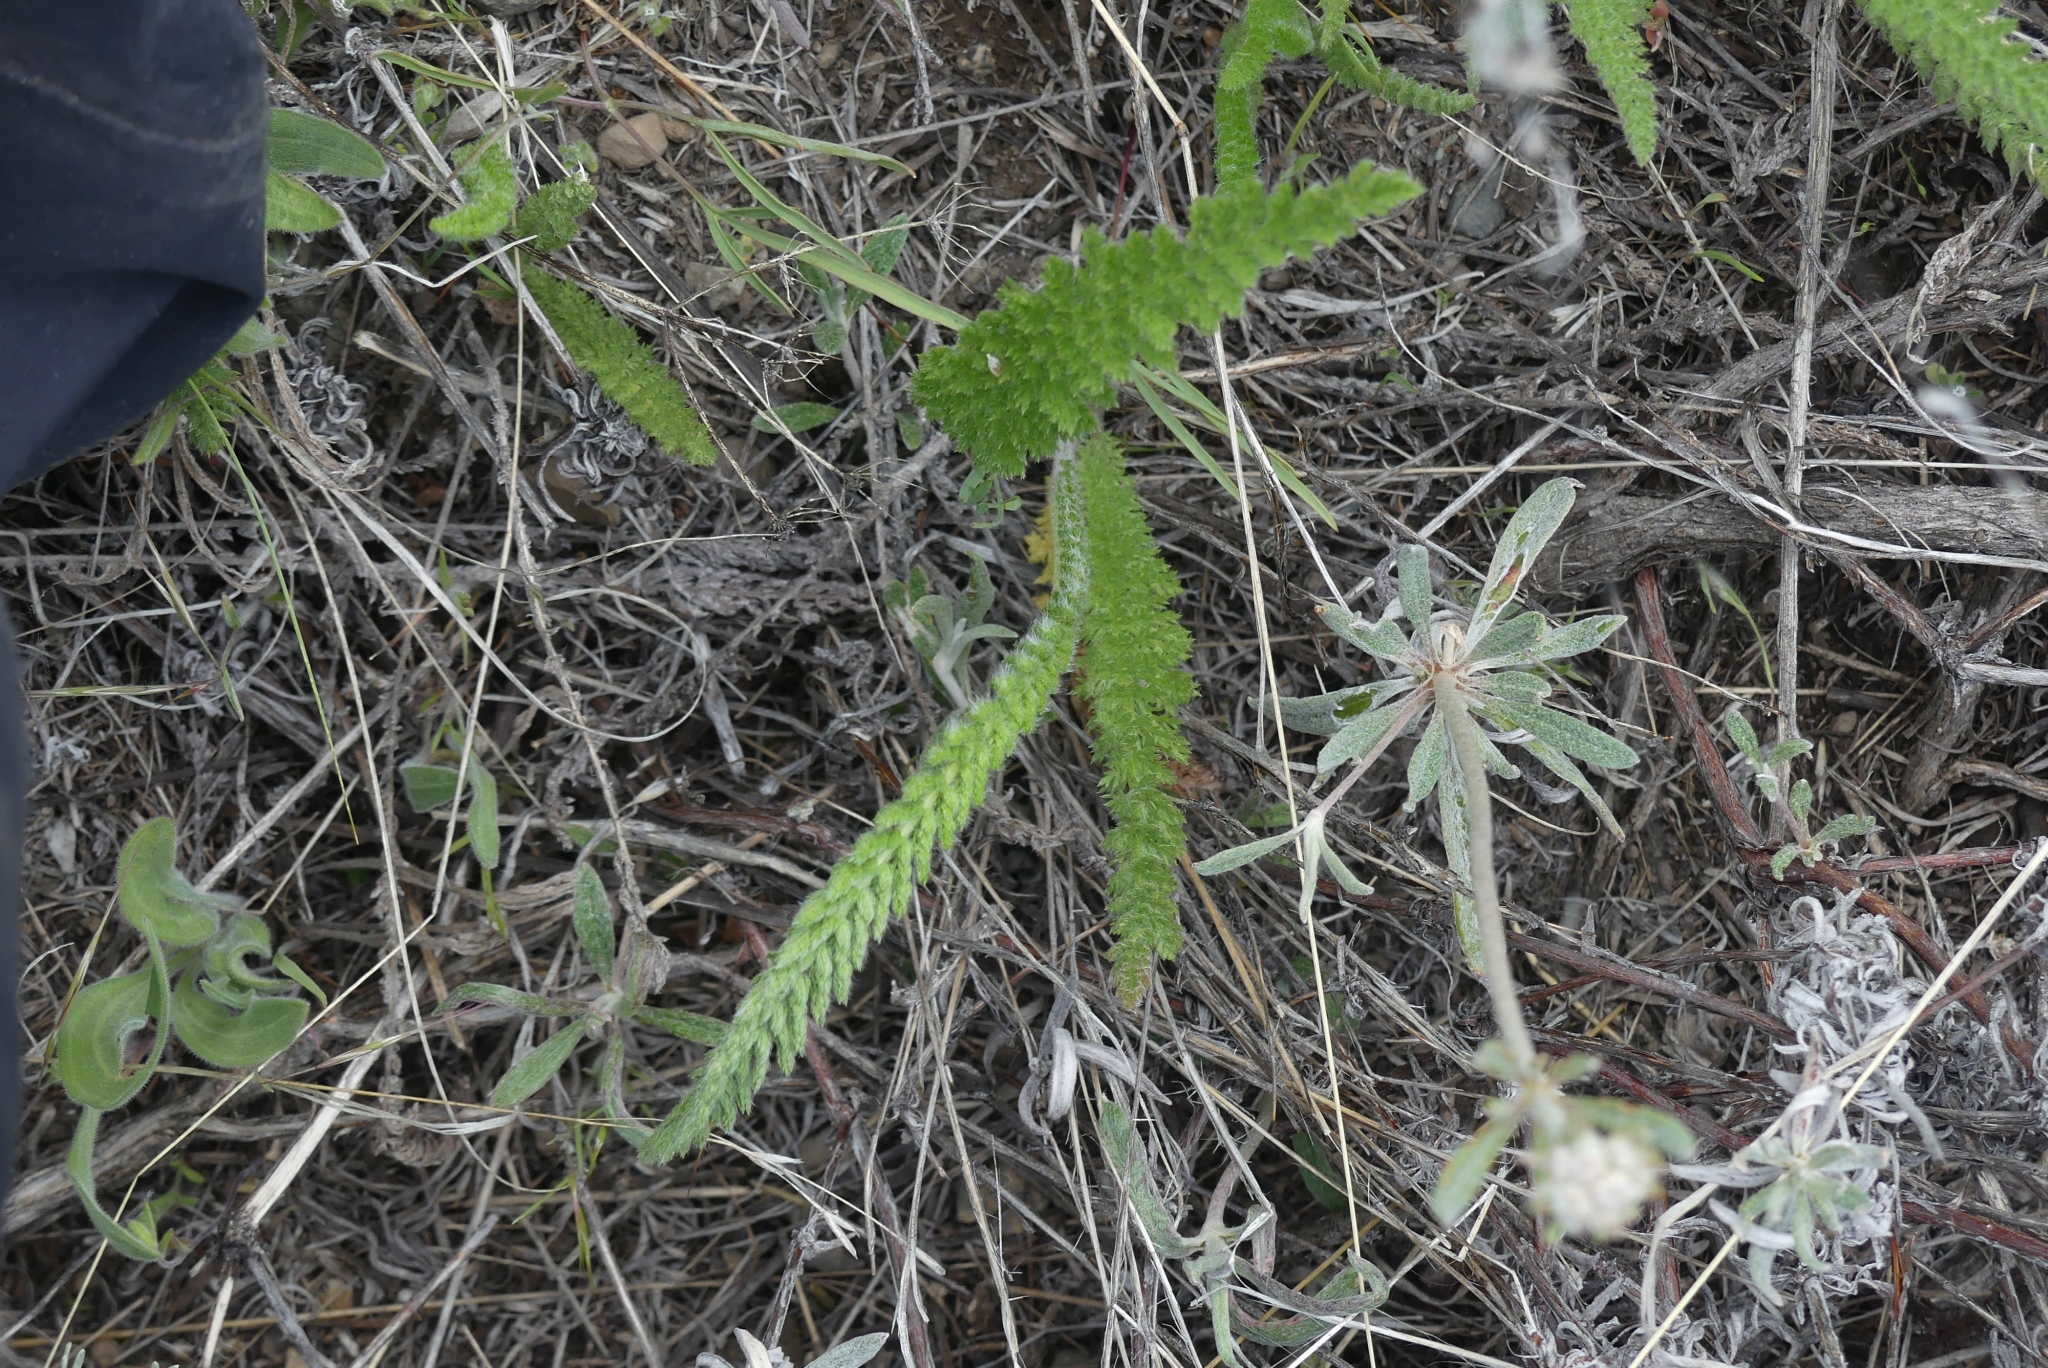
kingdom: Plantae
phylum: Tracheophyta
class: Magnoliopsida
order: Asterales
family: Asteraceae
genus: Achillea
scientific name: Achillea millefolium
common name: Yarrow
